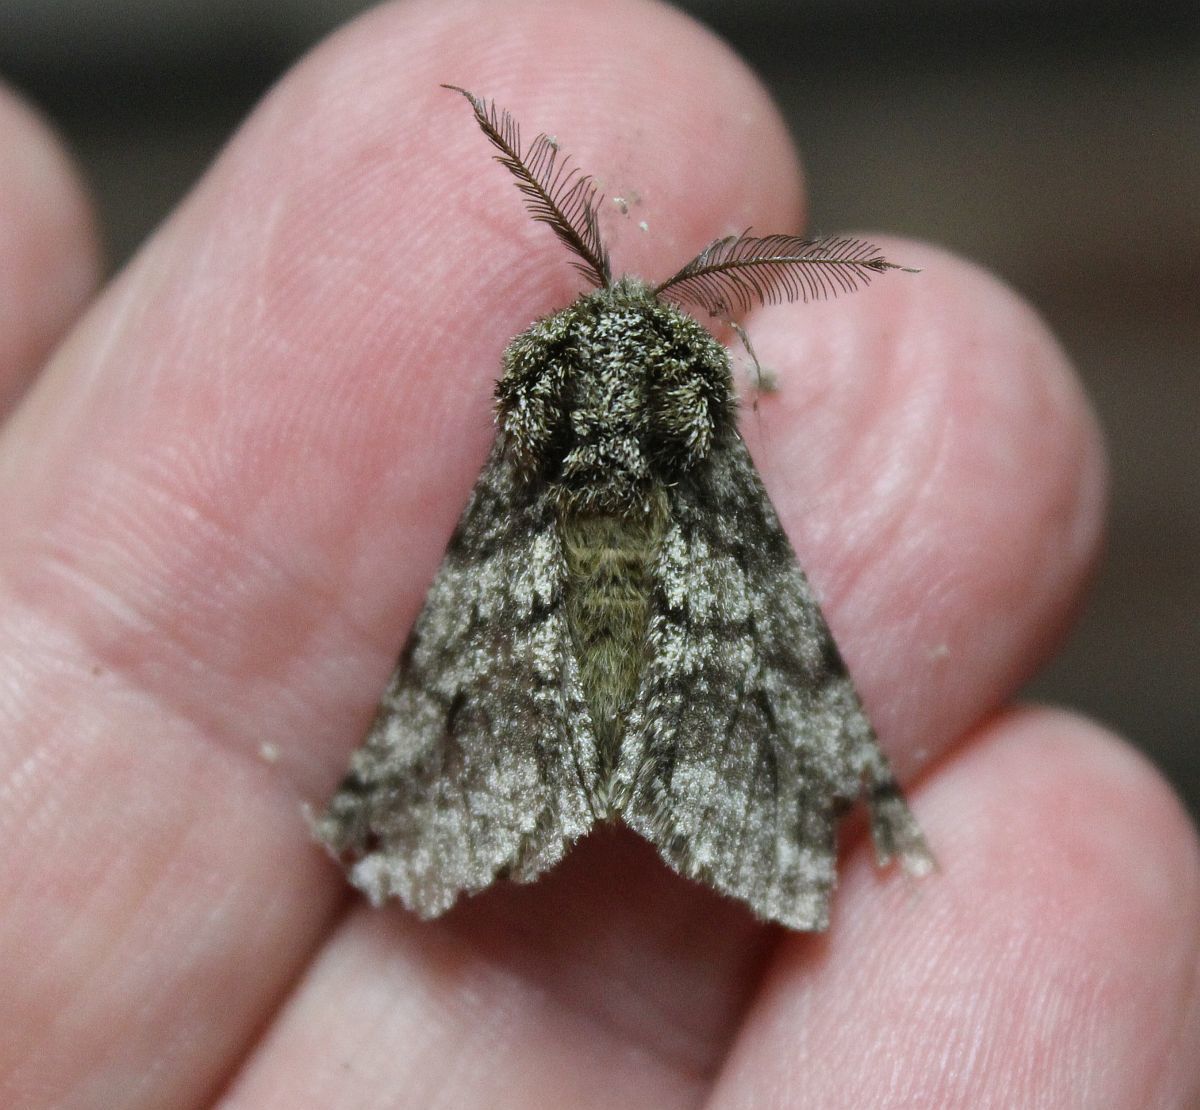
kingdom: Animalia
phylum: Arthropoda
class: Insecta
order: Lepidoptera
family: Geometridae
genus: Lycia
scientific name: Lycia hirtaria
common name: Brindled beauty
